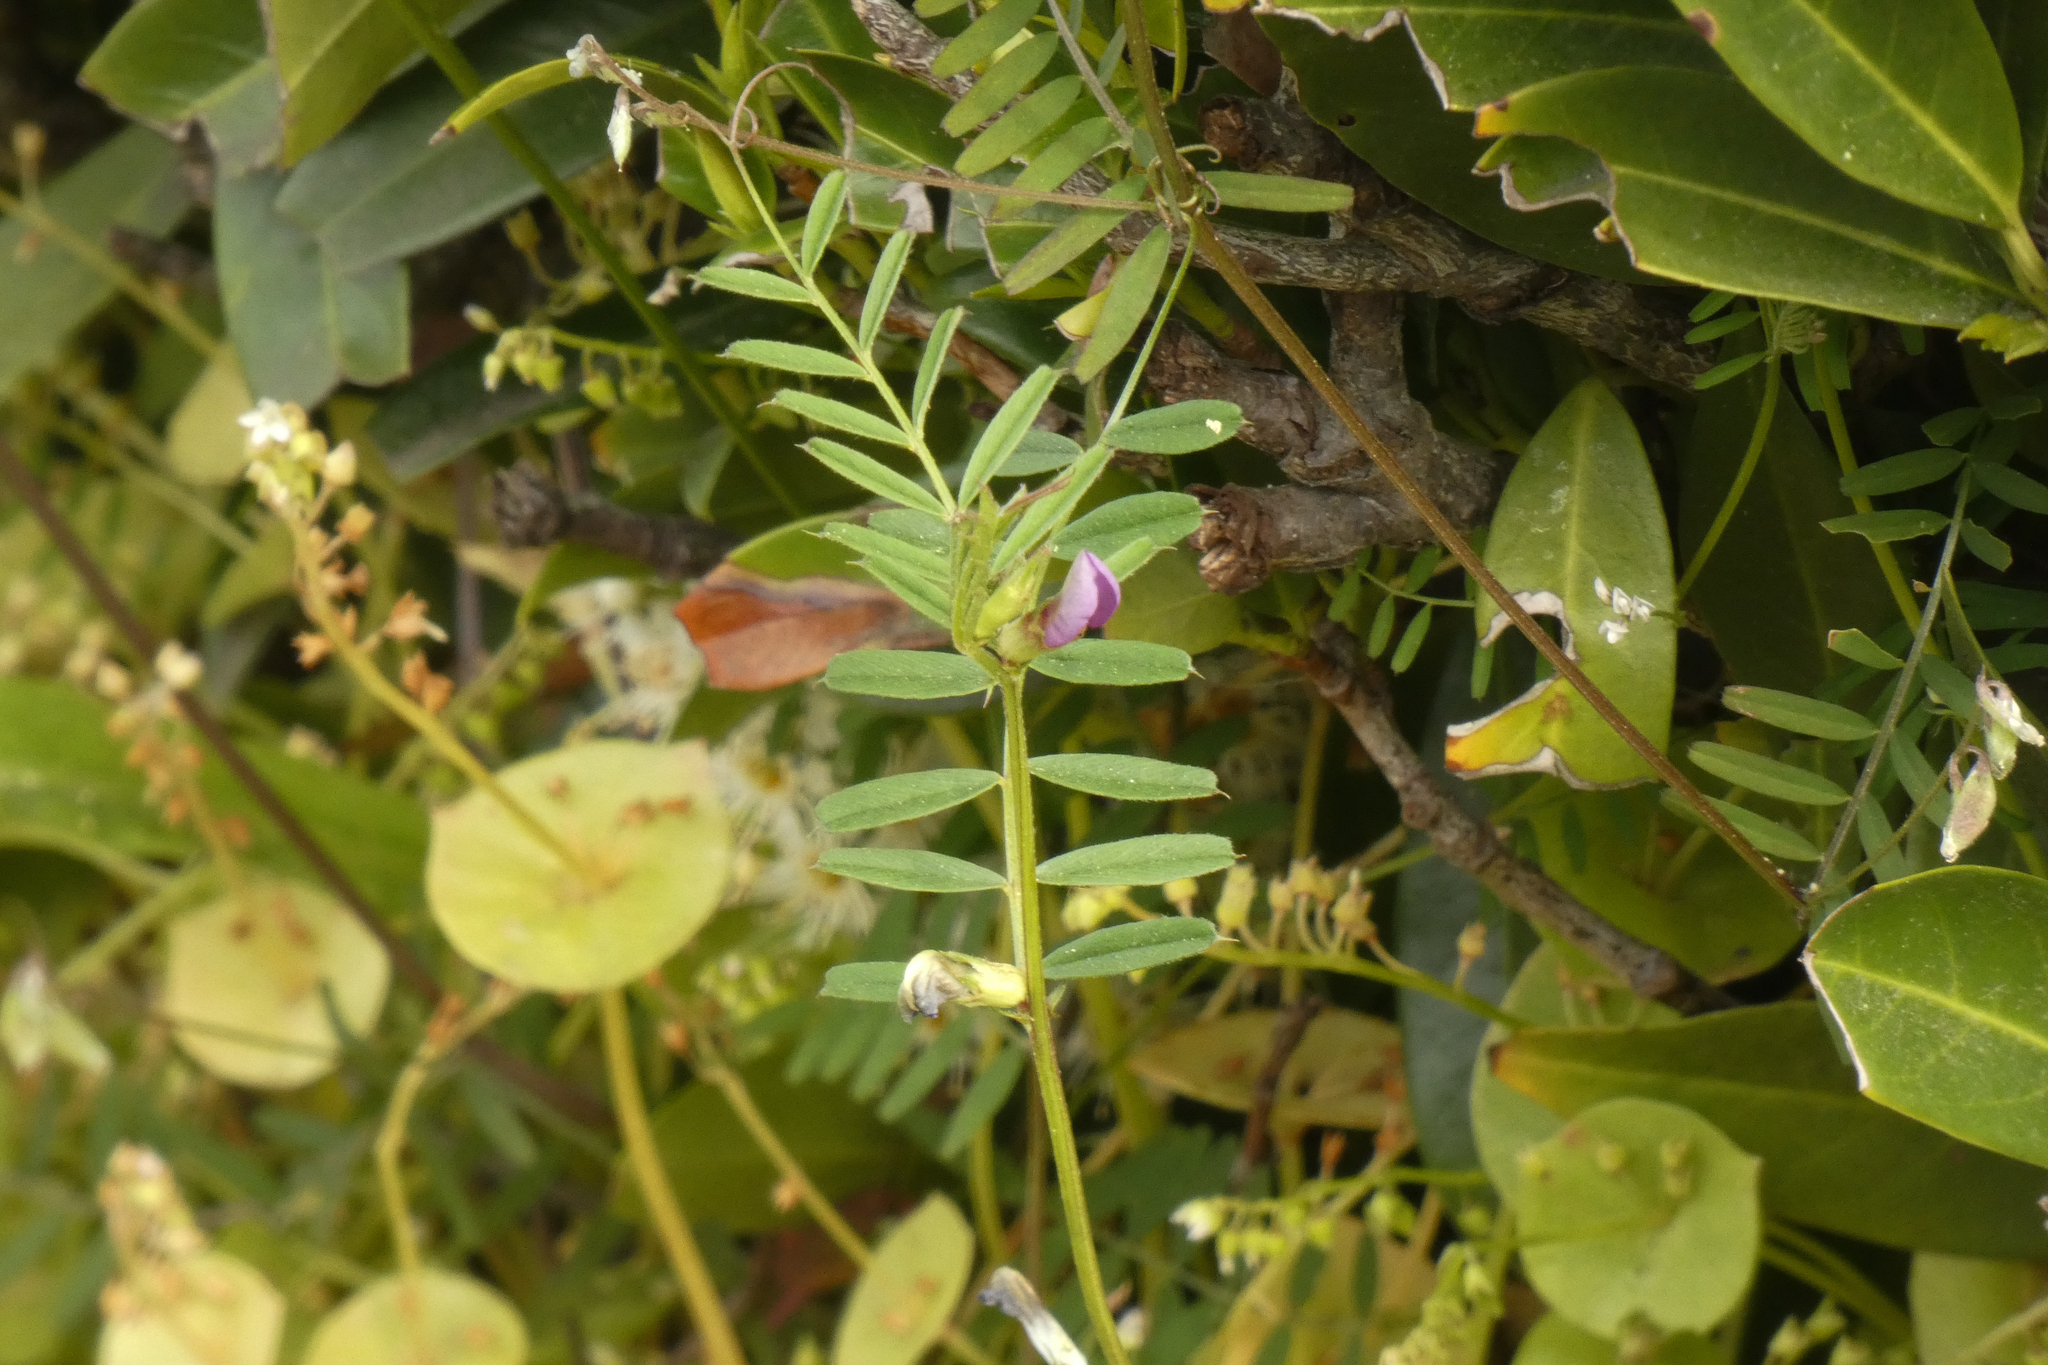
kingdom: Plantae
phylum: Tracheophyta
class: Magnoliopsida
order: Fabales
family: Fabaceae
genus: Vicia
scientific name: Vicia sativa
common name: Garden vetch
